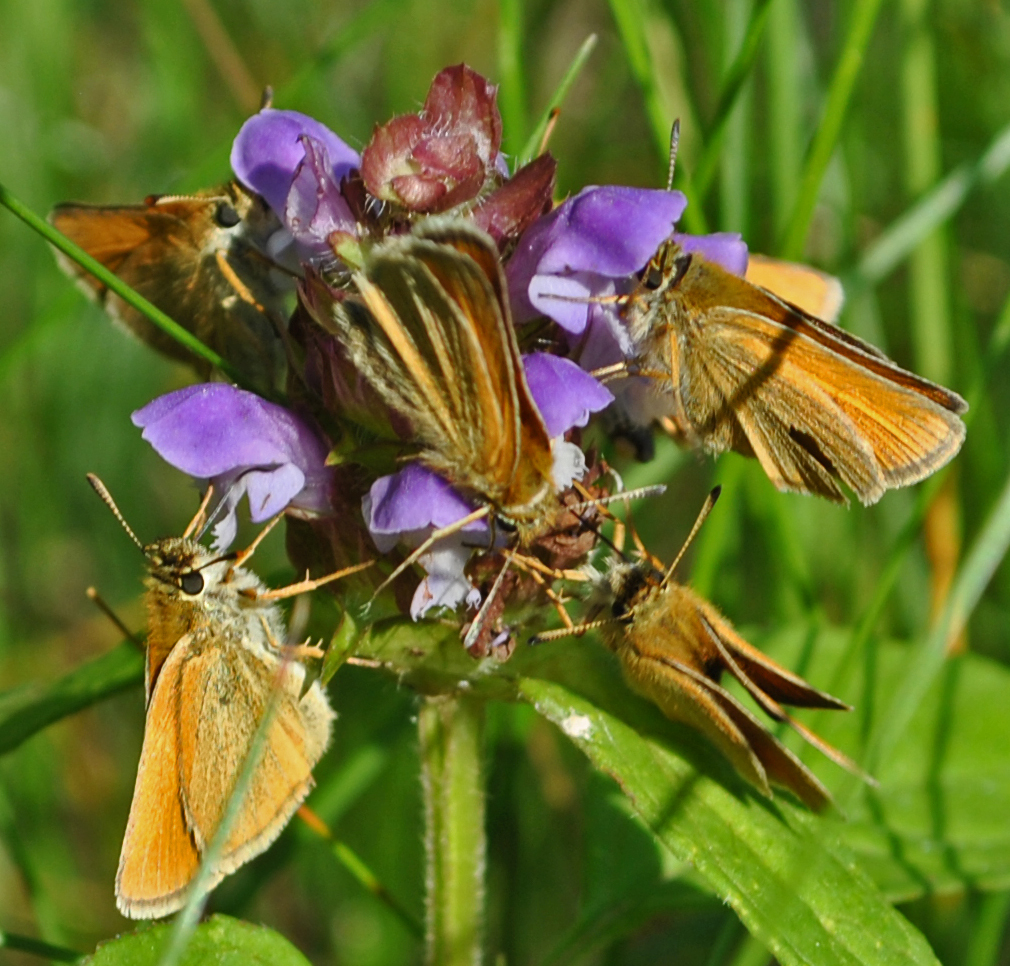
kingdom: Animalia
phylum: Arthropoda
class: Insecta
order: Lepidoptera
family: Hesperiidae
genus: Thymelicus
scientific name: Thymelicus lineola
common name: Essex skipper
